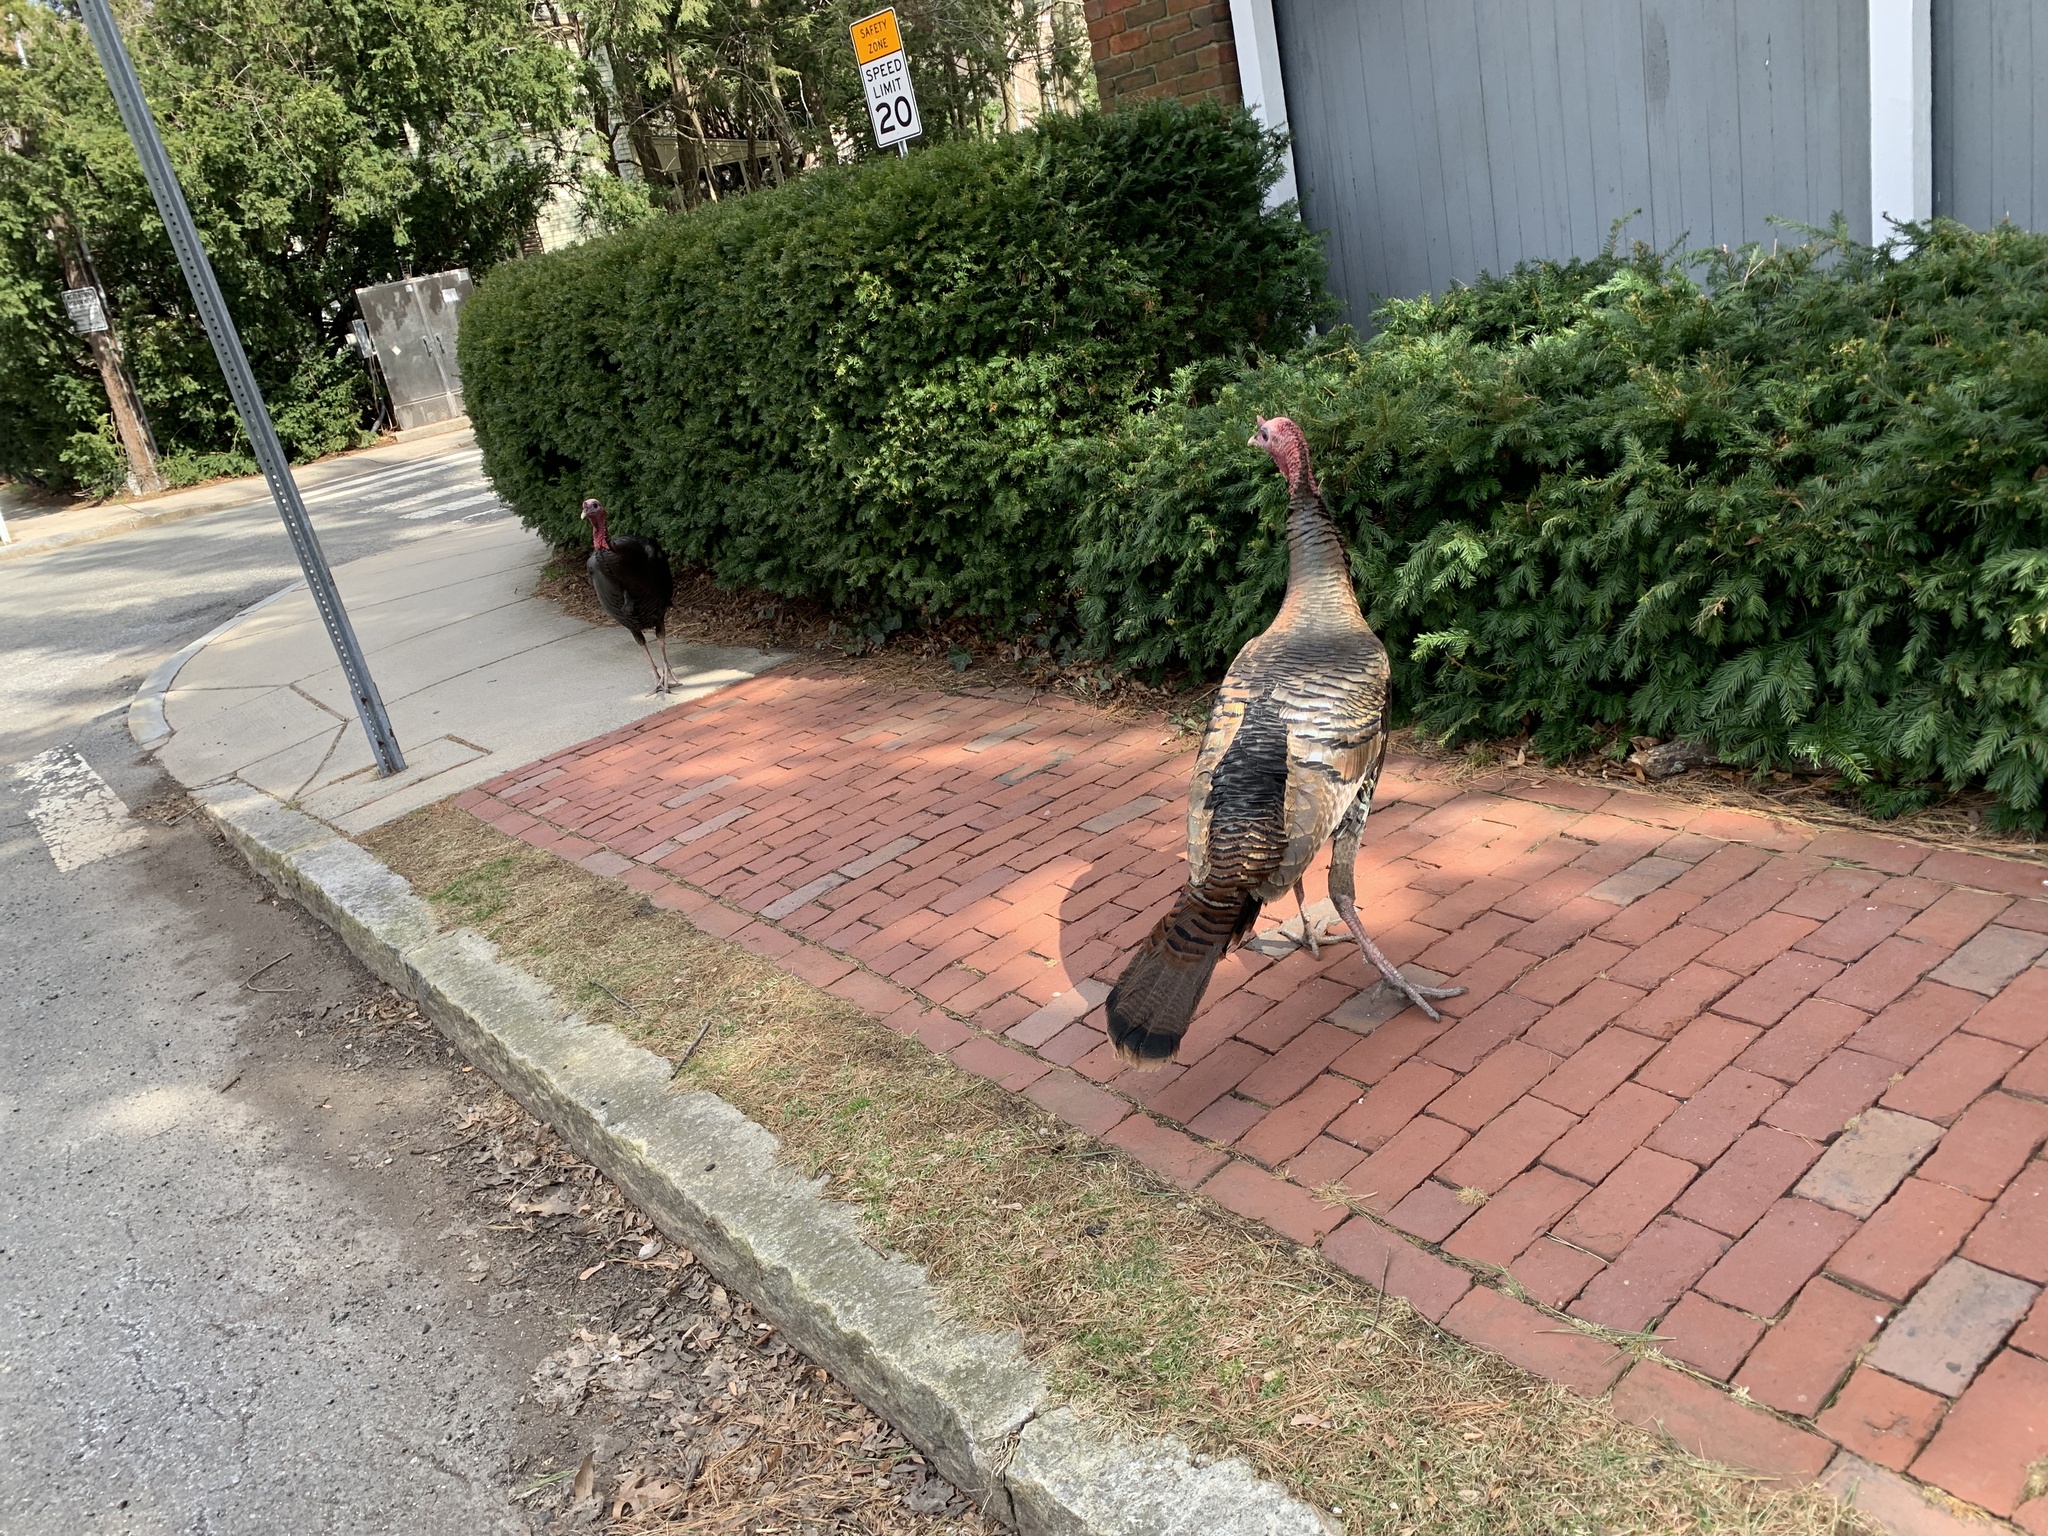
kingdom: Animalia
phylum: Chordata
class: Aves
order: Galliformes
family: Phasianidae
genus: Meleagris
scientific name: Meleagris gallopavo
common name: Wild turkey
